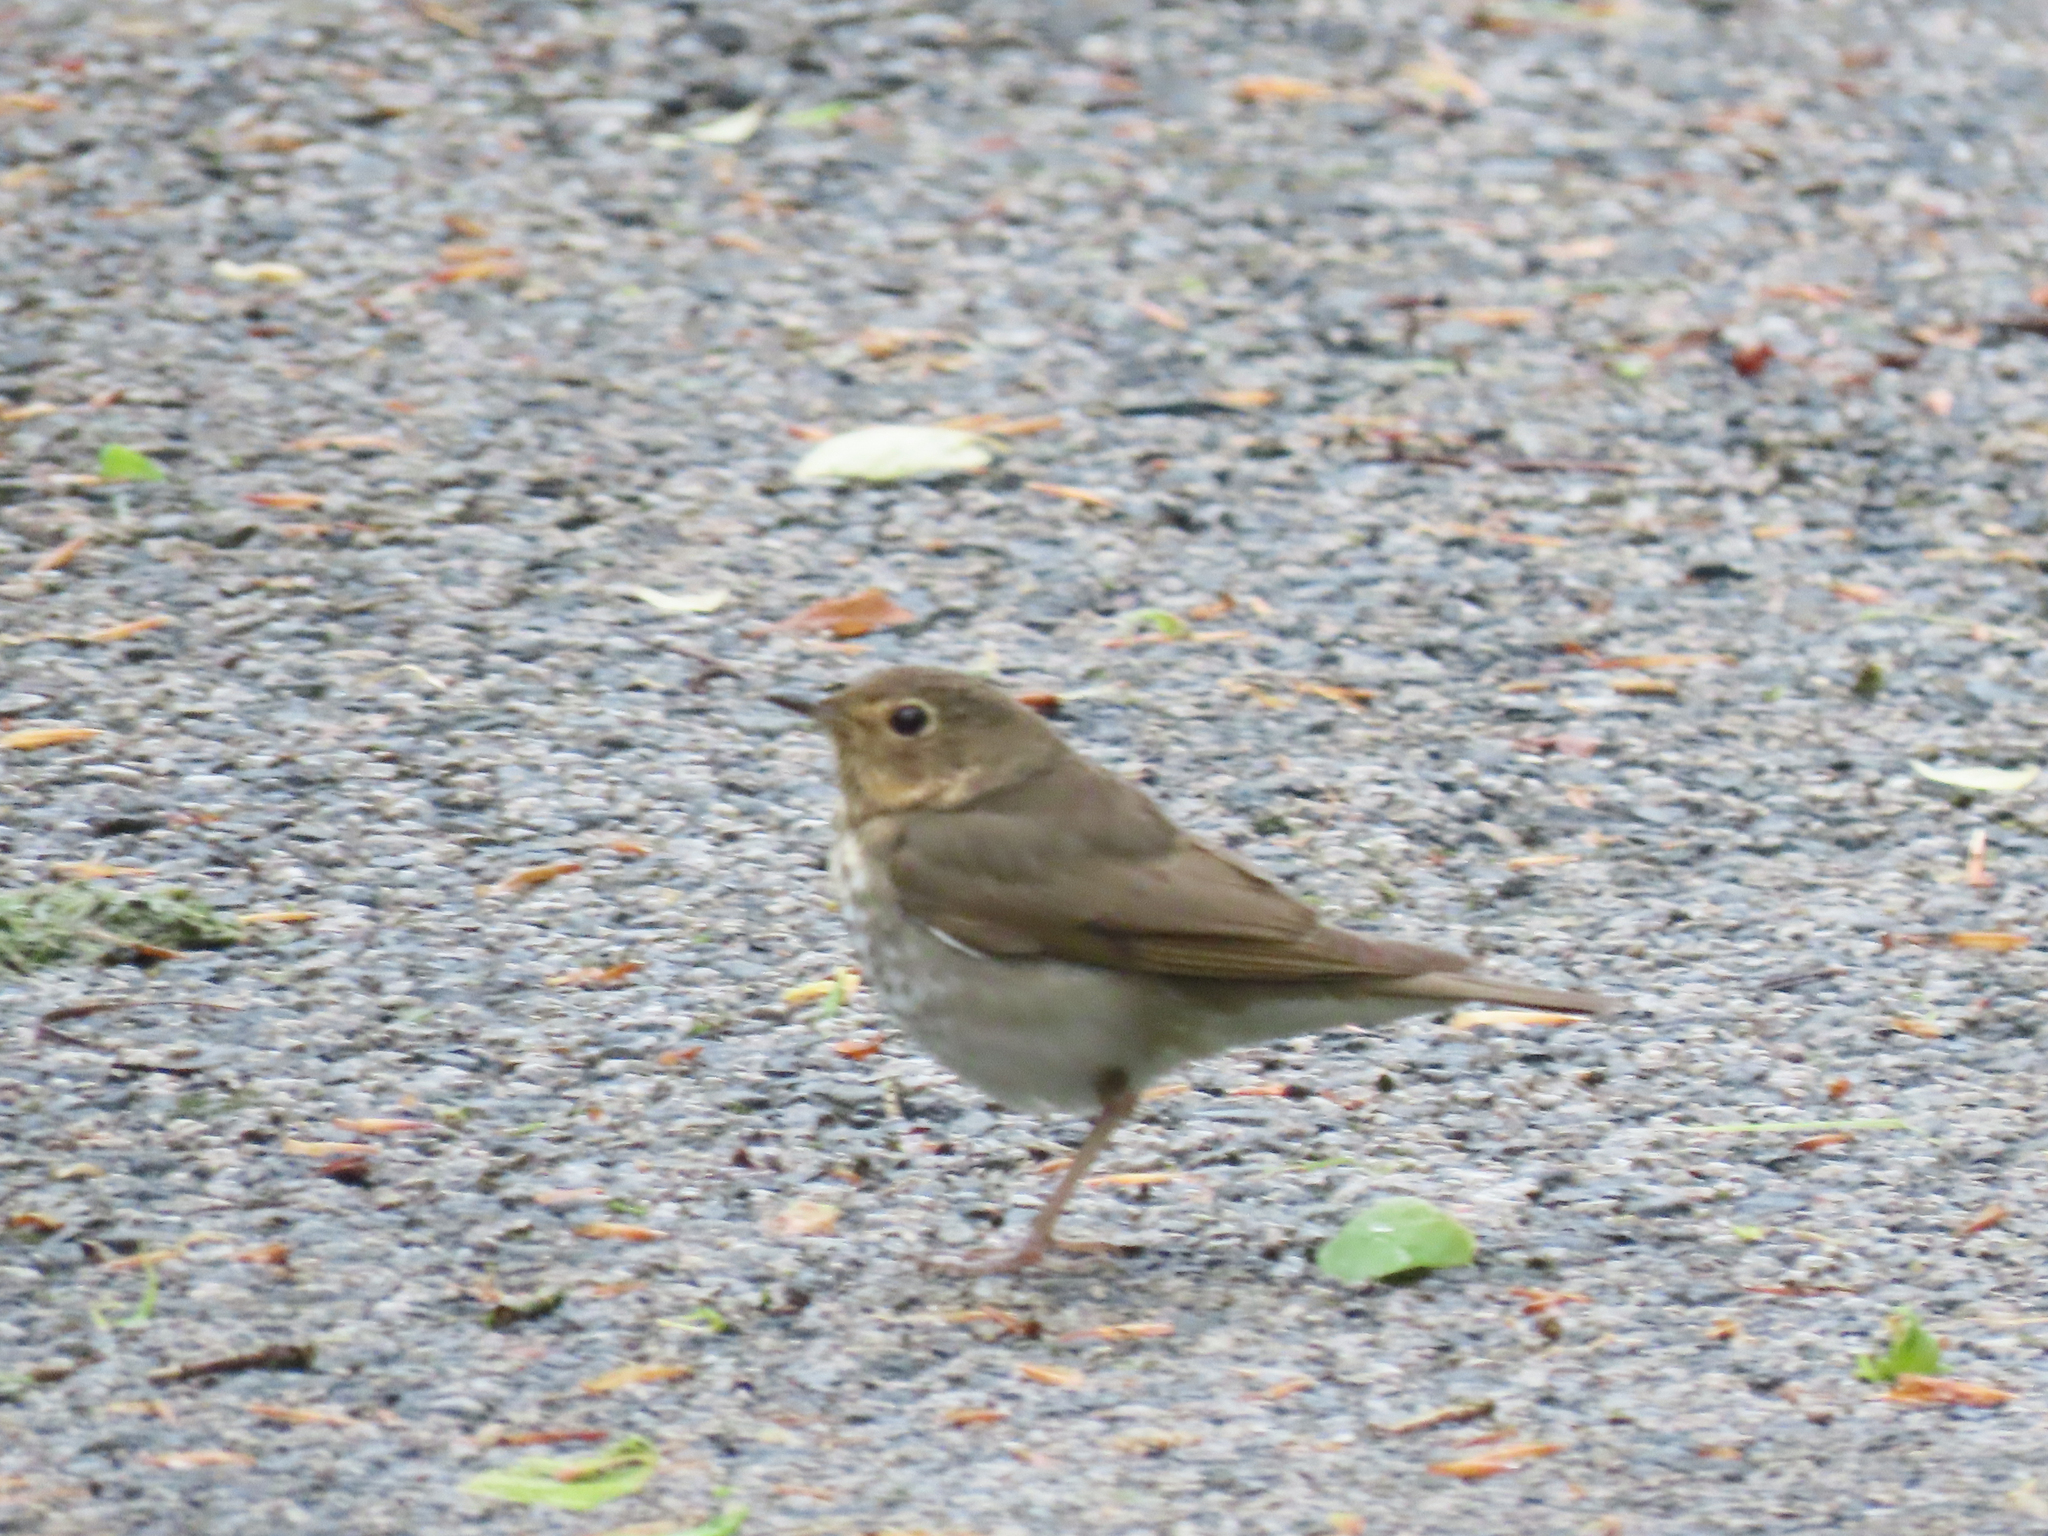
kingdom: Animalia
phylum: Chordata
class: Aves
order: Passeriformes
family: Turdidae
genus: Catharus
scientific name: Catharus ustulatus
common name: Swainson's thrush
